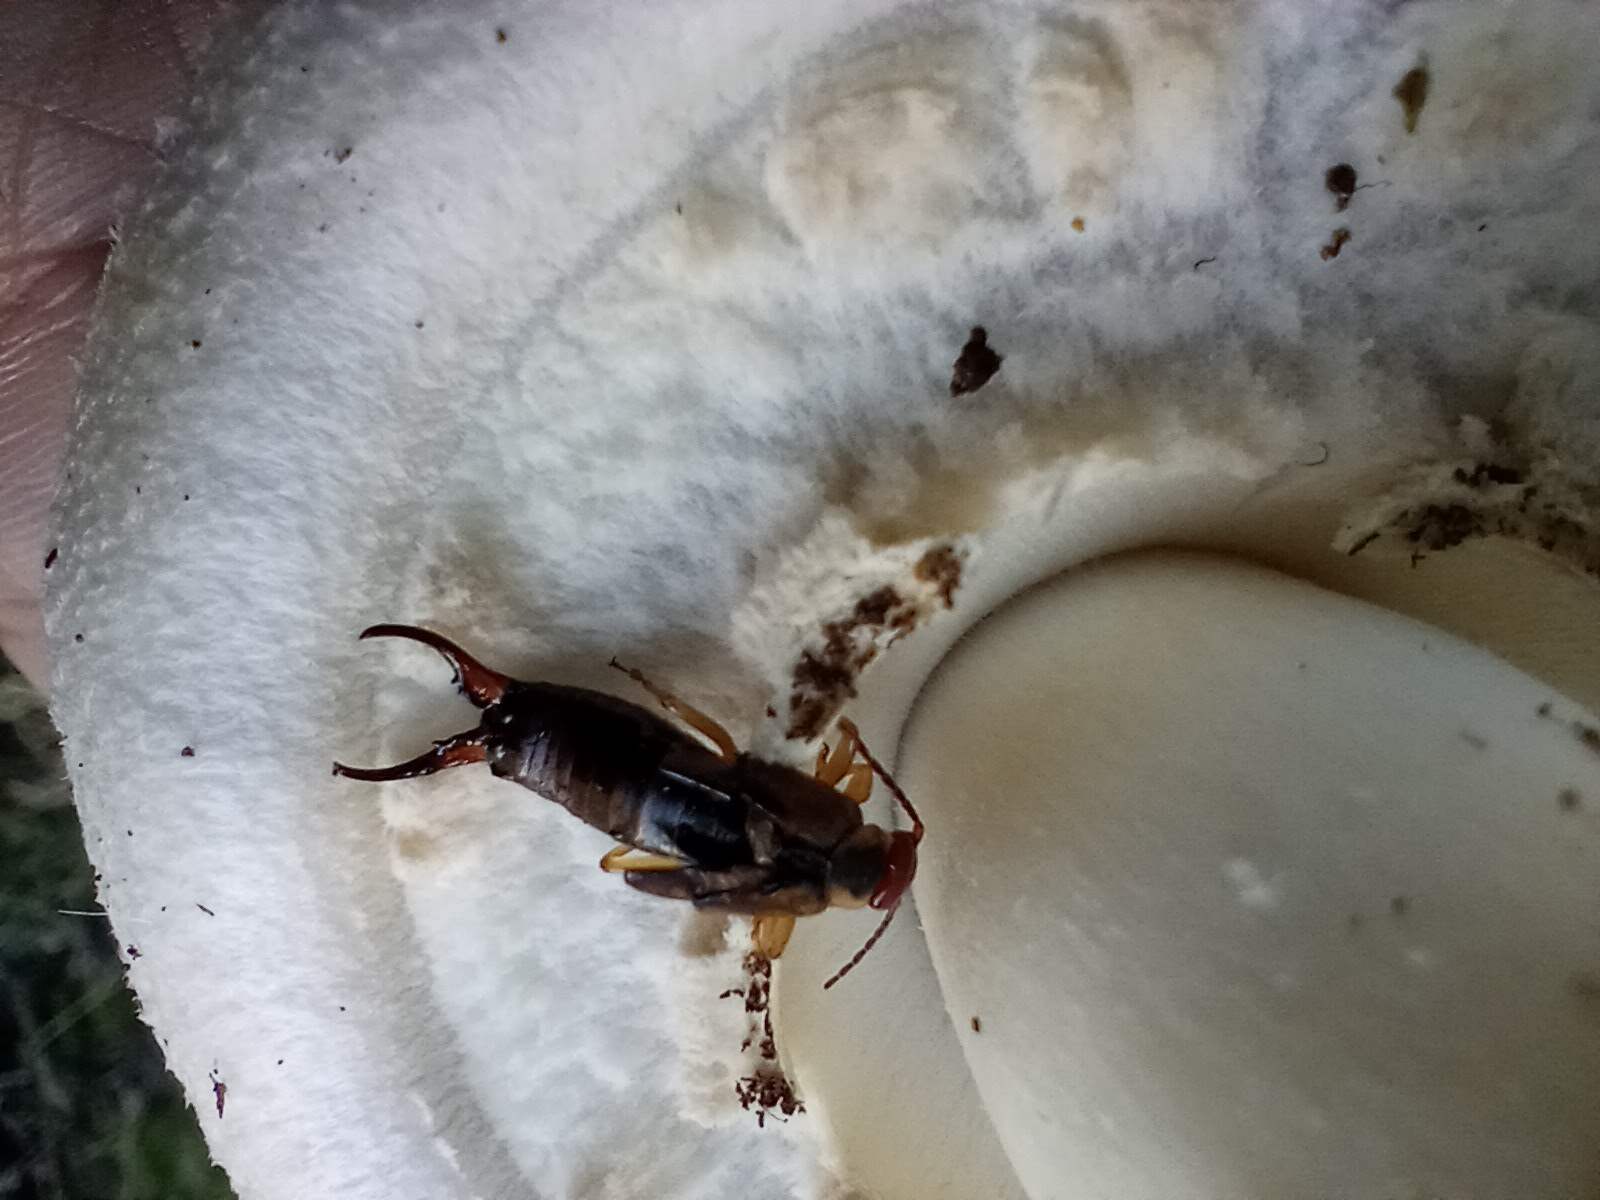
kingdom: Animalia
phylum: Arthropoda
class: Insecta
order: Dermaptera
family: Forficulidae
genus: Forficula
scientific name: Forficula dentata
